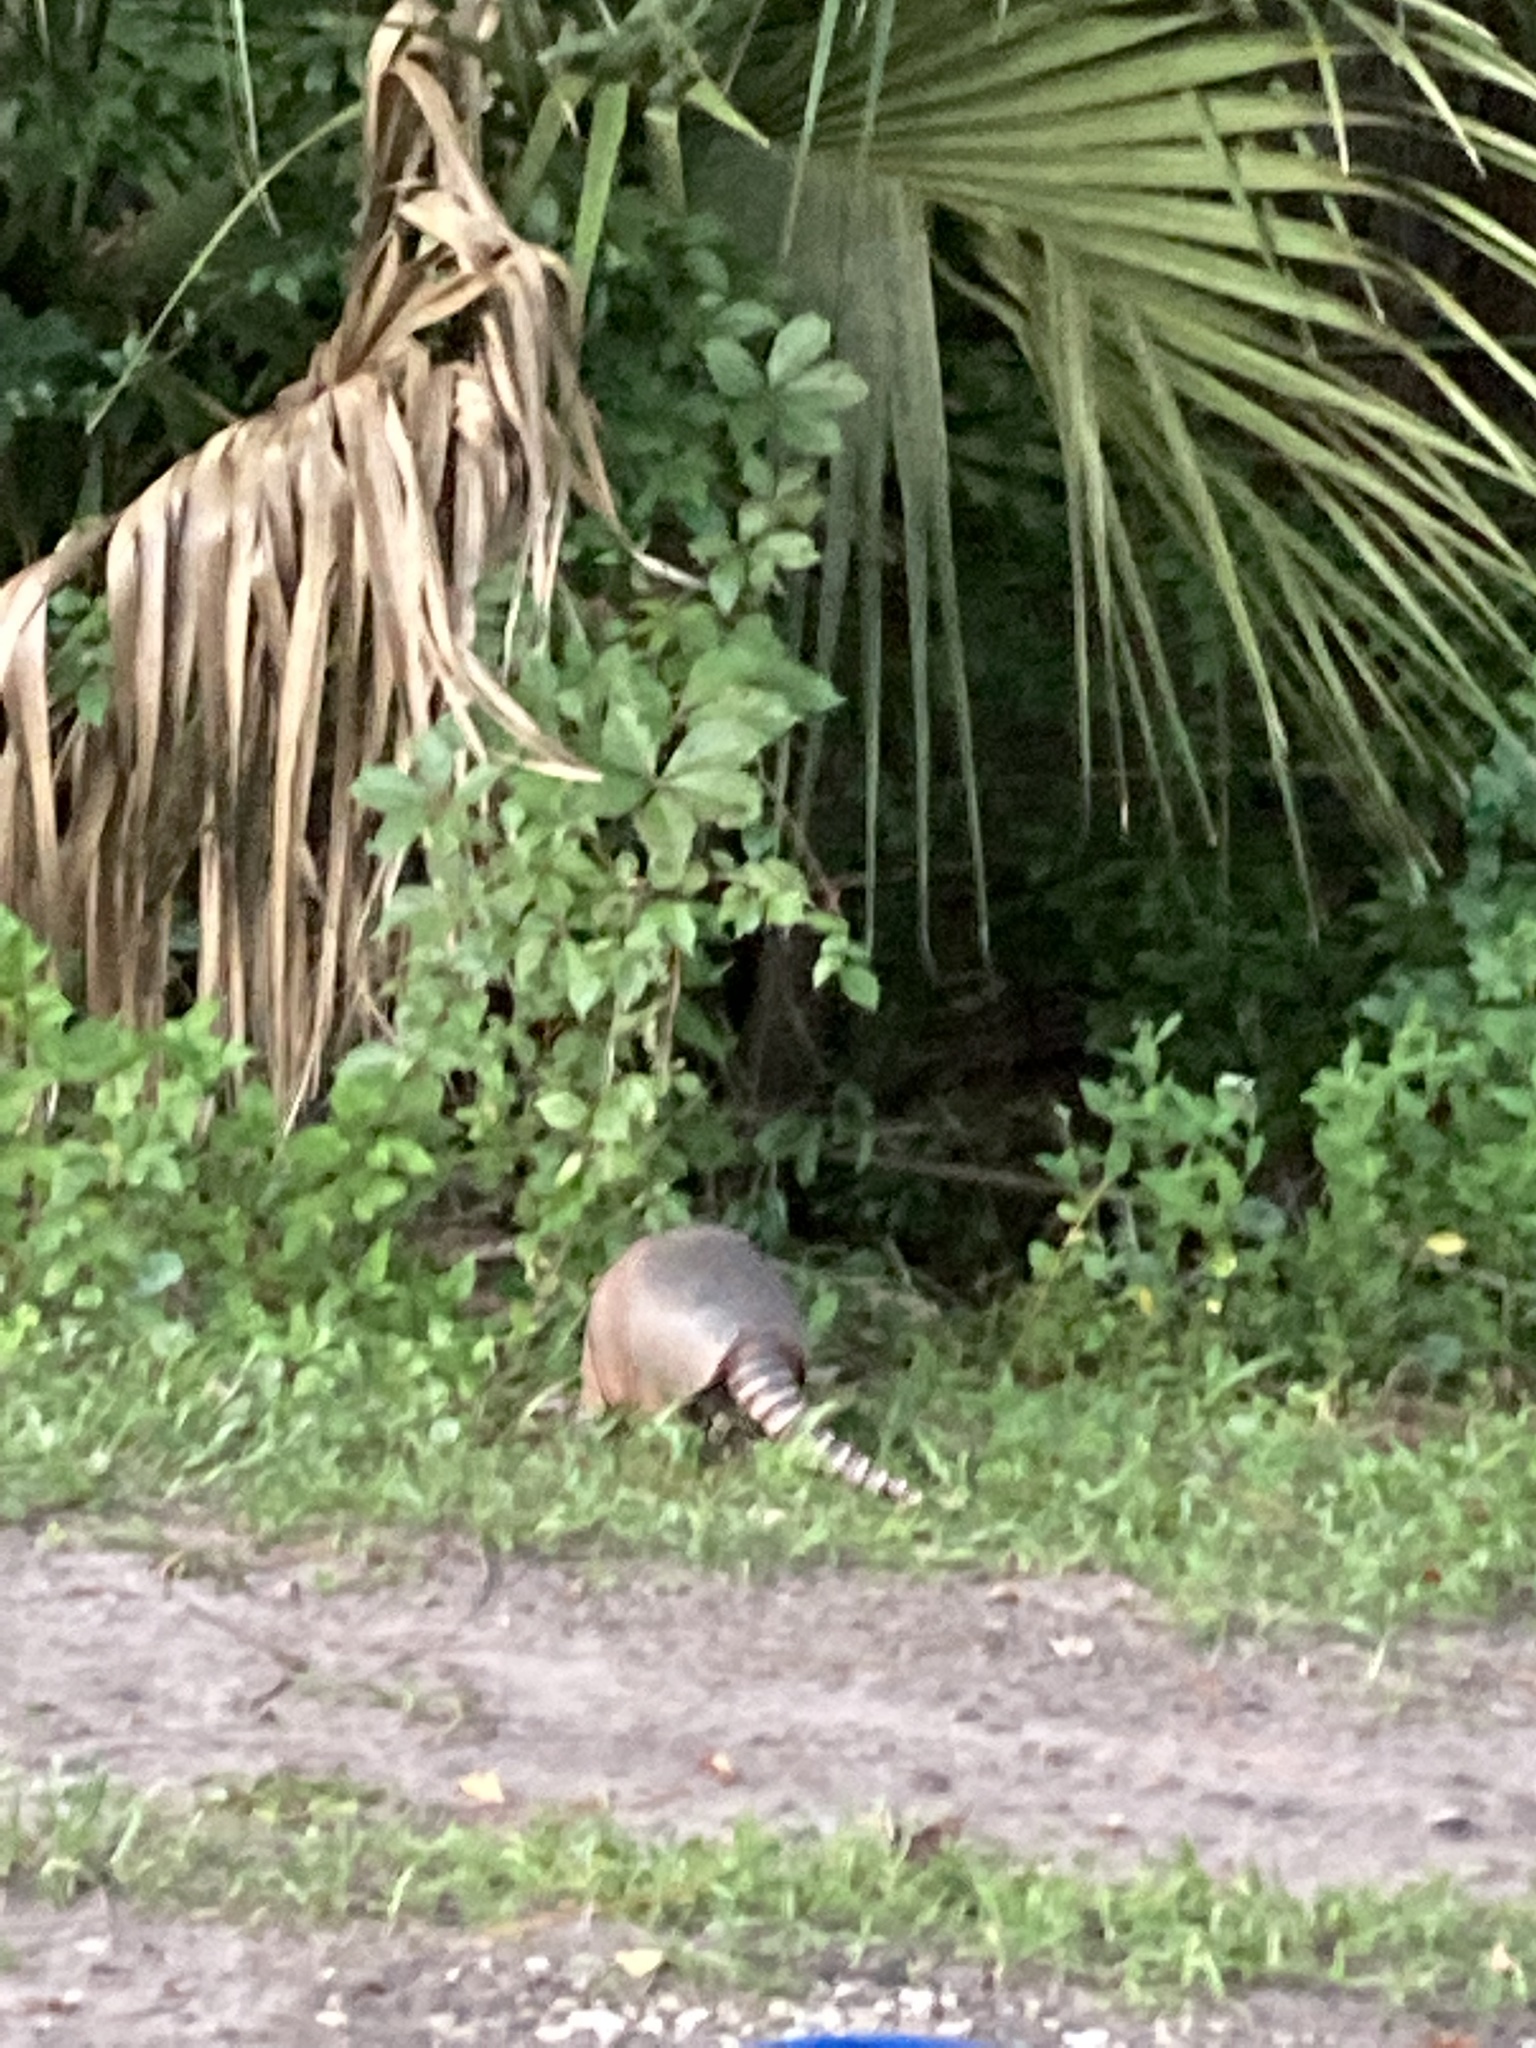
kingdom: Animalia
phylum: Chordata
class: Mammalia
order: Cingulata
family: Dasypodidae
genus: Dasypus
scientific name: Dasypus novemcinctus
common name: Nine-banded armadillo
